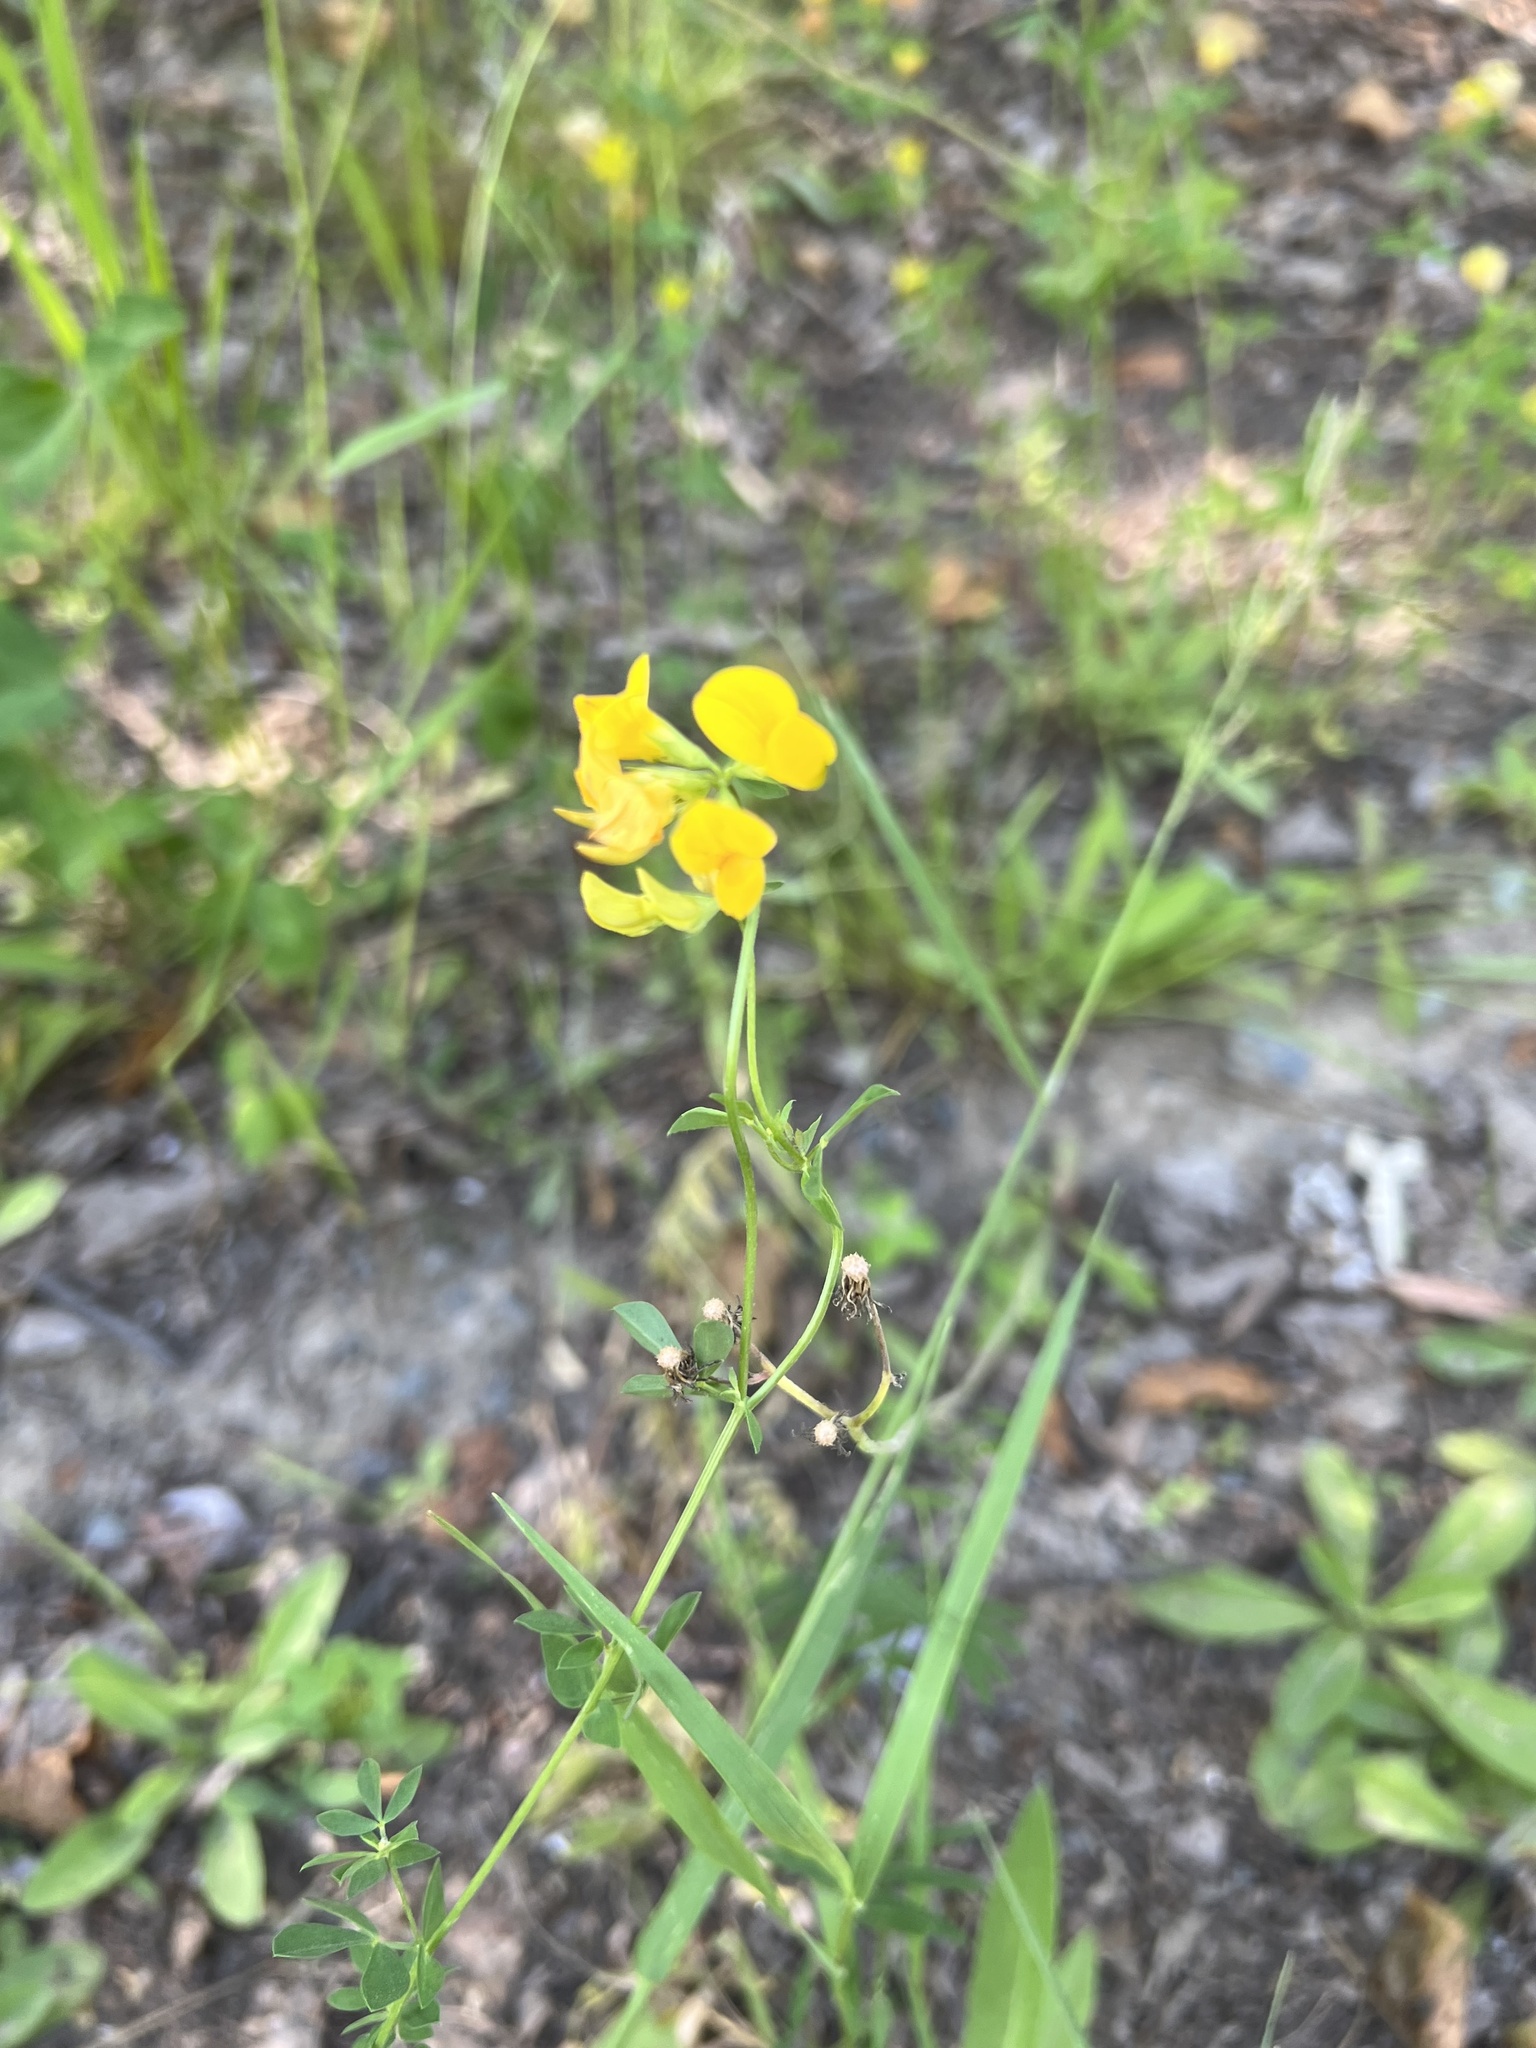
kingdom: Plantae
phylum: Tracheophyta
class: Magnoliopsida
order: Fabales
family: Fabaceae
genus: Lotus
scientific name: Lotus corniculatus
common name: Common bird's-foot-trefoil
